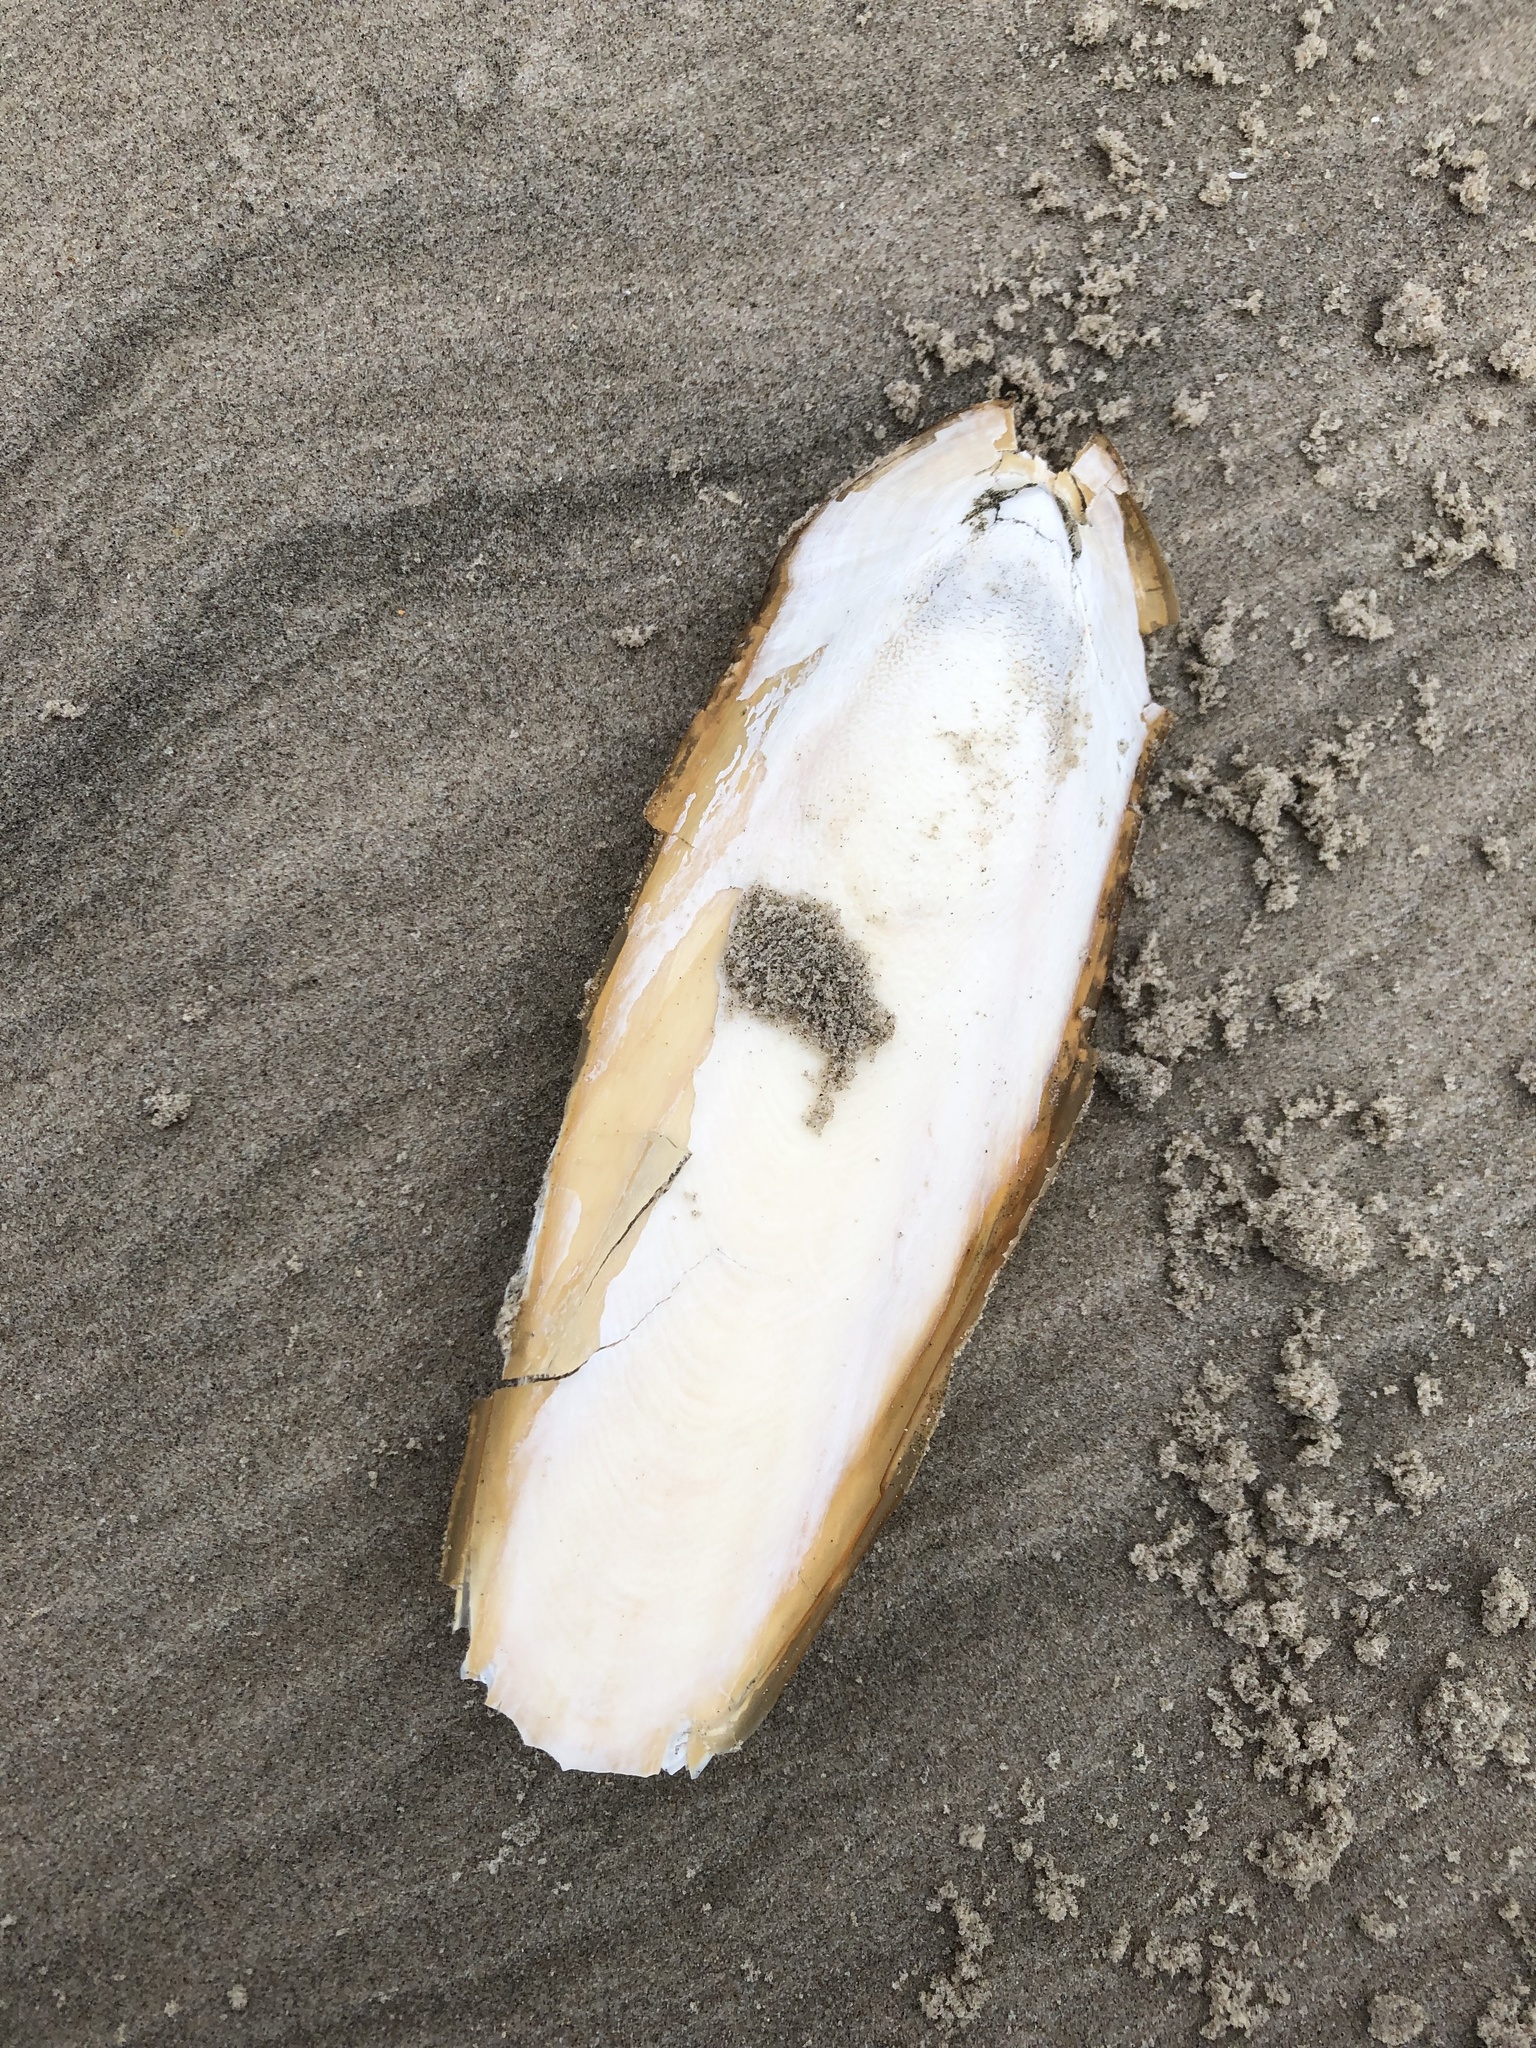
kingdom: Animalia
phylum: Mollusca
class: Cephalopoda
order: Sepiida
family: Sepiidae
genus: Sepia
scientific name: Sepia officinalis
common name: Common cuttlefish
